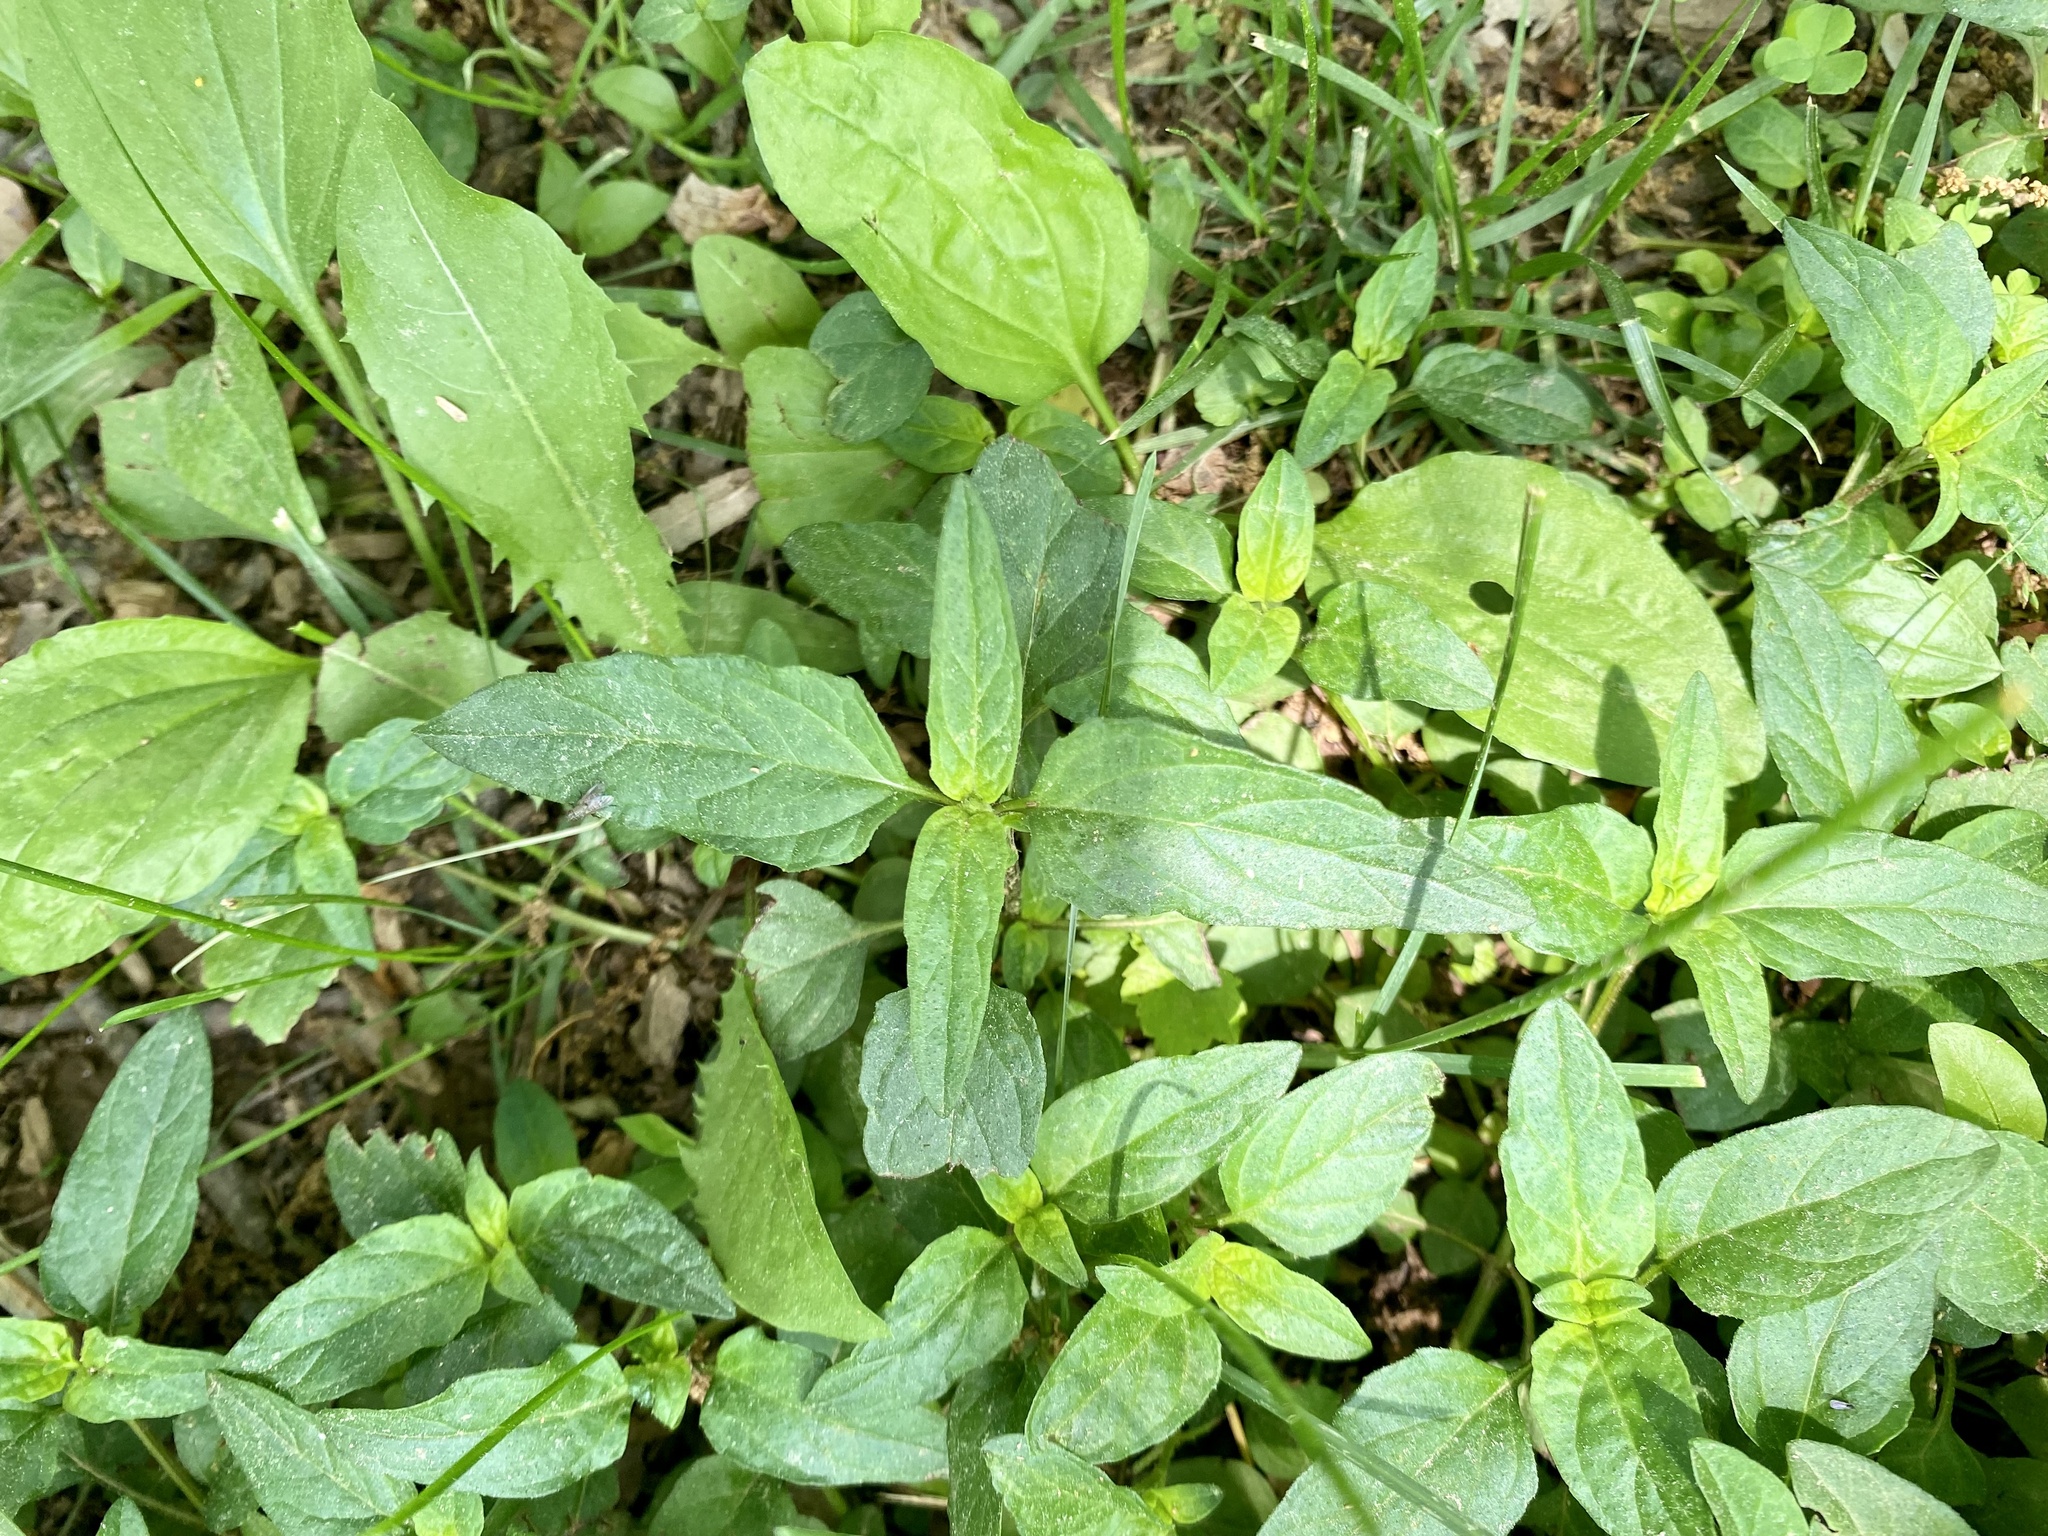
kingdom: Plantae
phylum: Tracheophyta
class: Magnoliopsida
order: Lamiales
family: Lamiaceae
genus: Prunella
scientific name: Prunella vulgaris
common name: Heal-all
